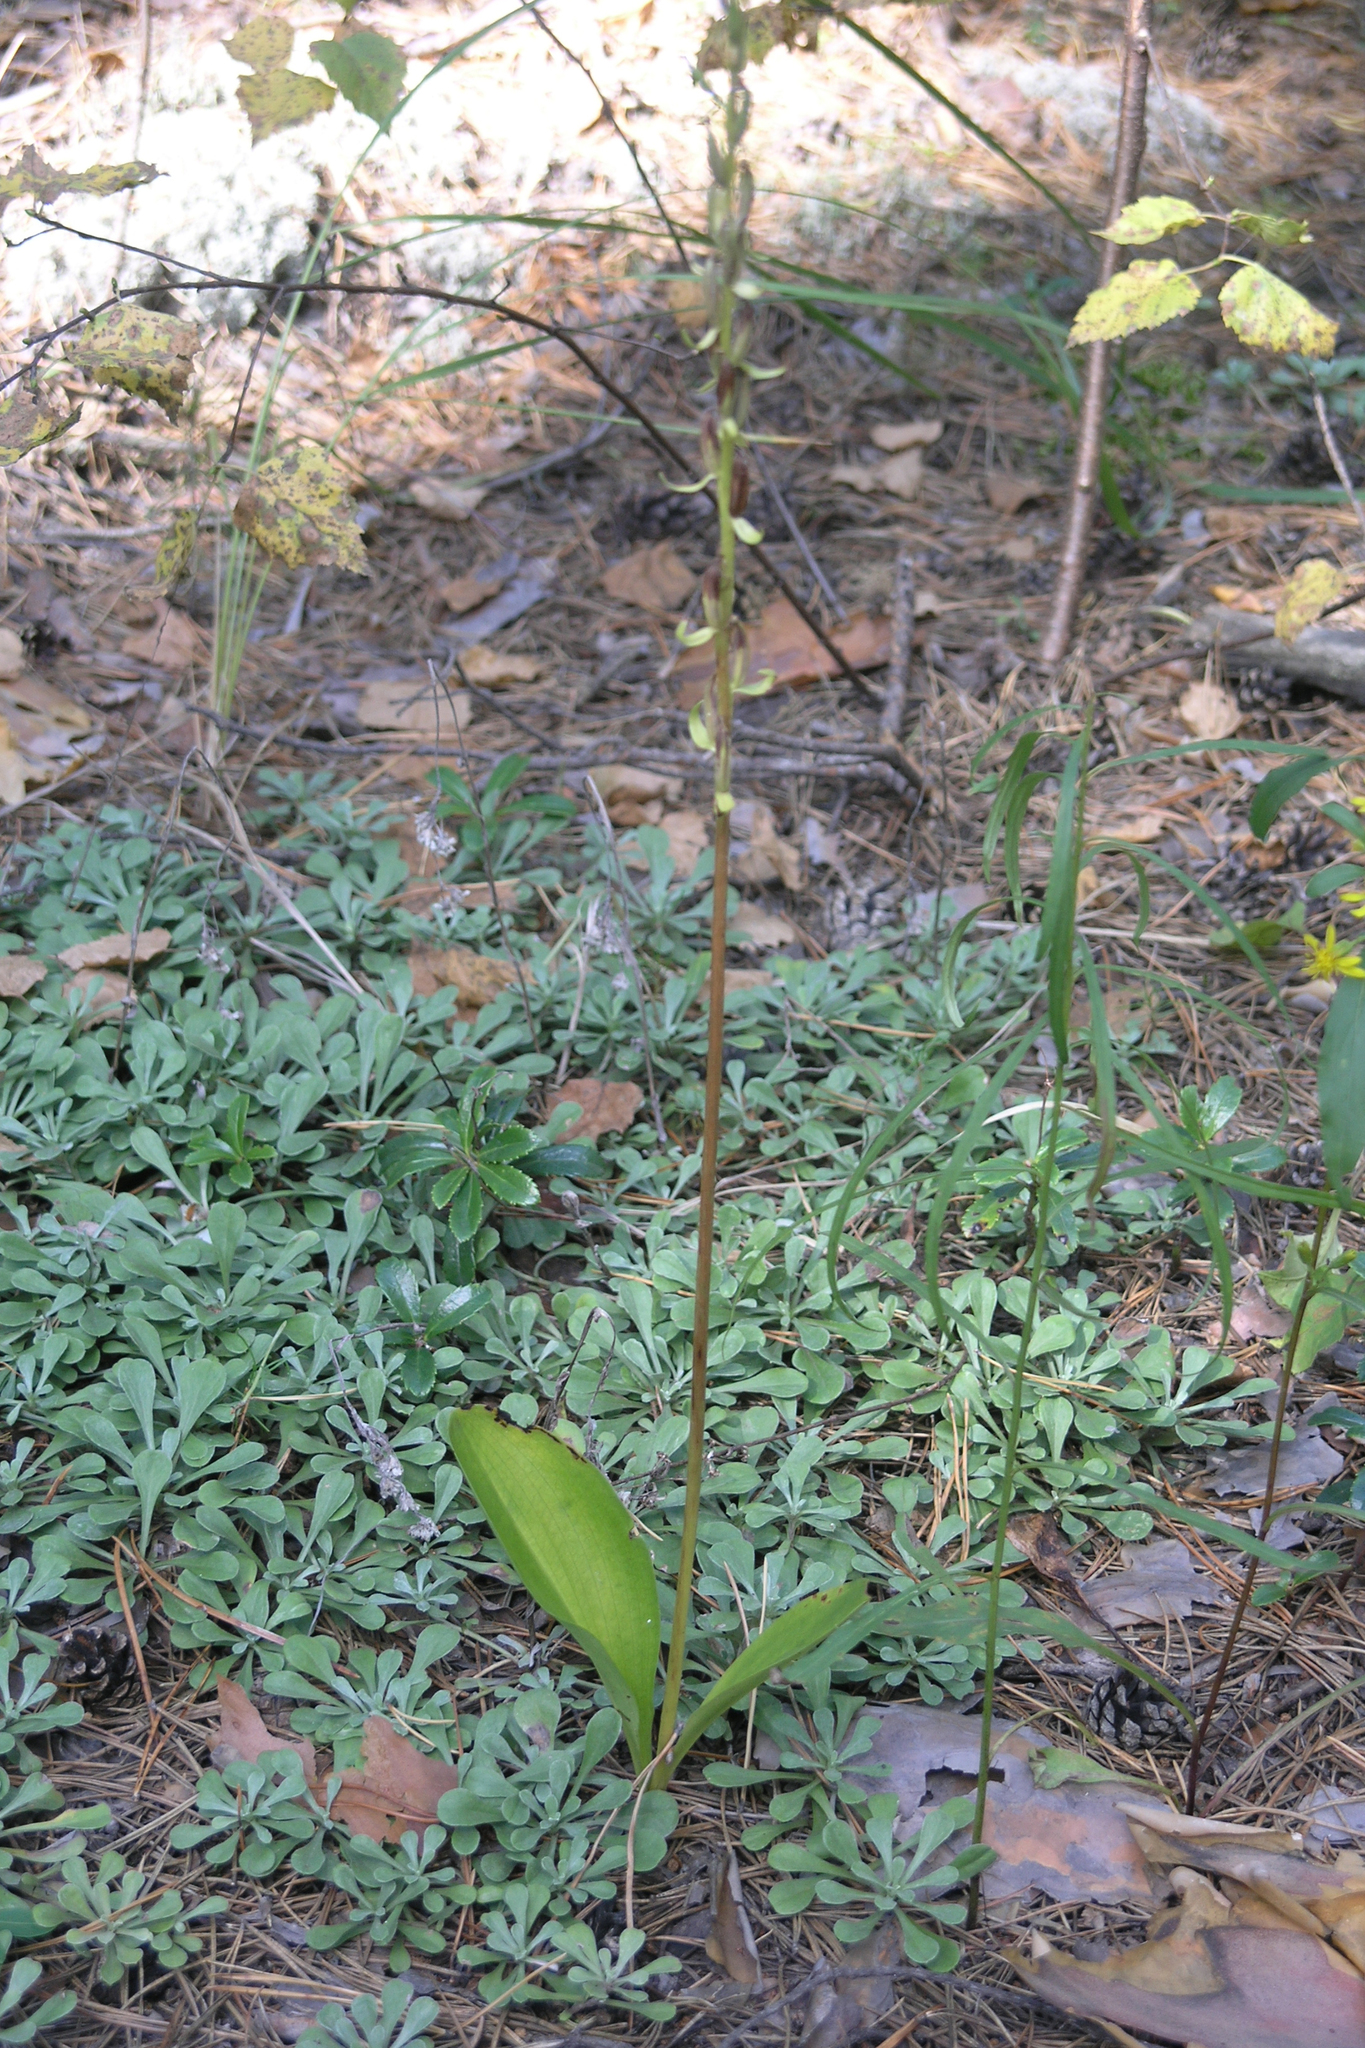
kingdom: Plantae
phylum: Tracheophyta
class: Liliopsida
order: Asparagales
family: Orchidaceae
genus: Platanthera
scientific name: Platanthera bifolia
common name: Lesser butterfly-orchid
